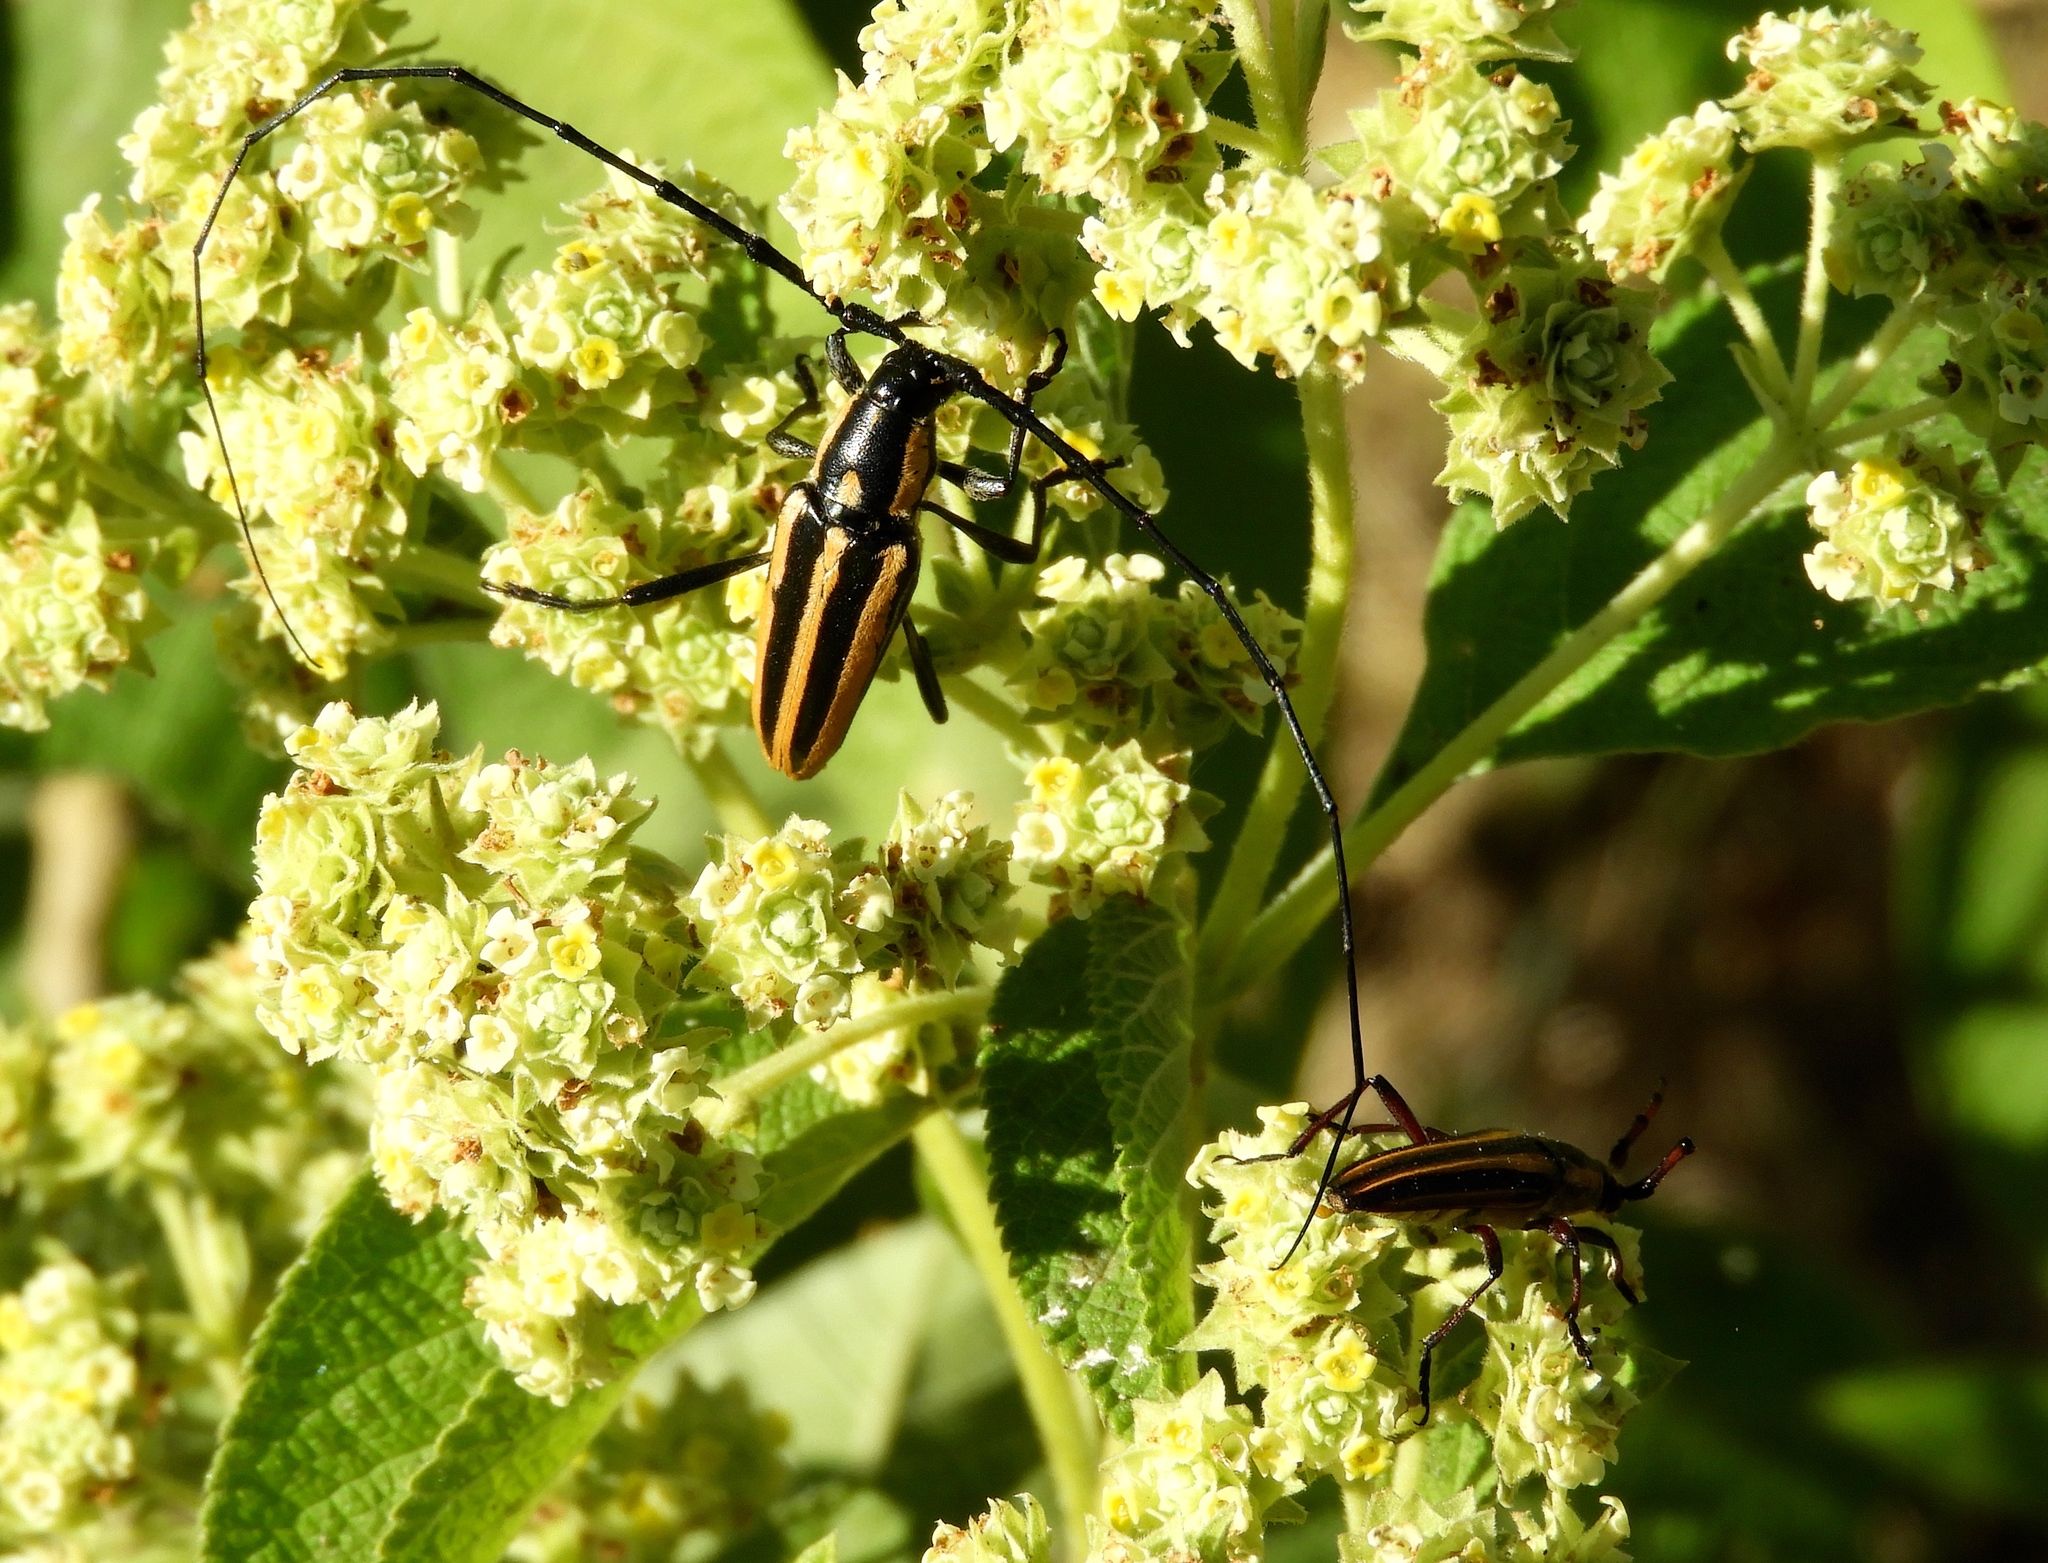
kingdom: Animalia
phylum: Arthropoda
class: Insecta
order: Coleoptera
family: Cerambycidae
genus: Sphaenothecus
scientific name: Sphaenothecus trilineatus
